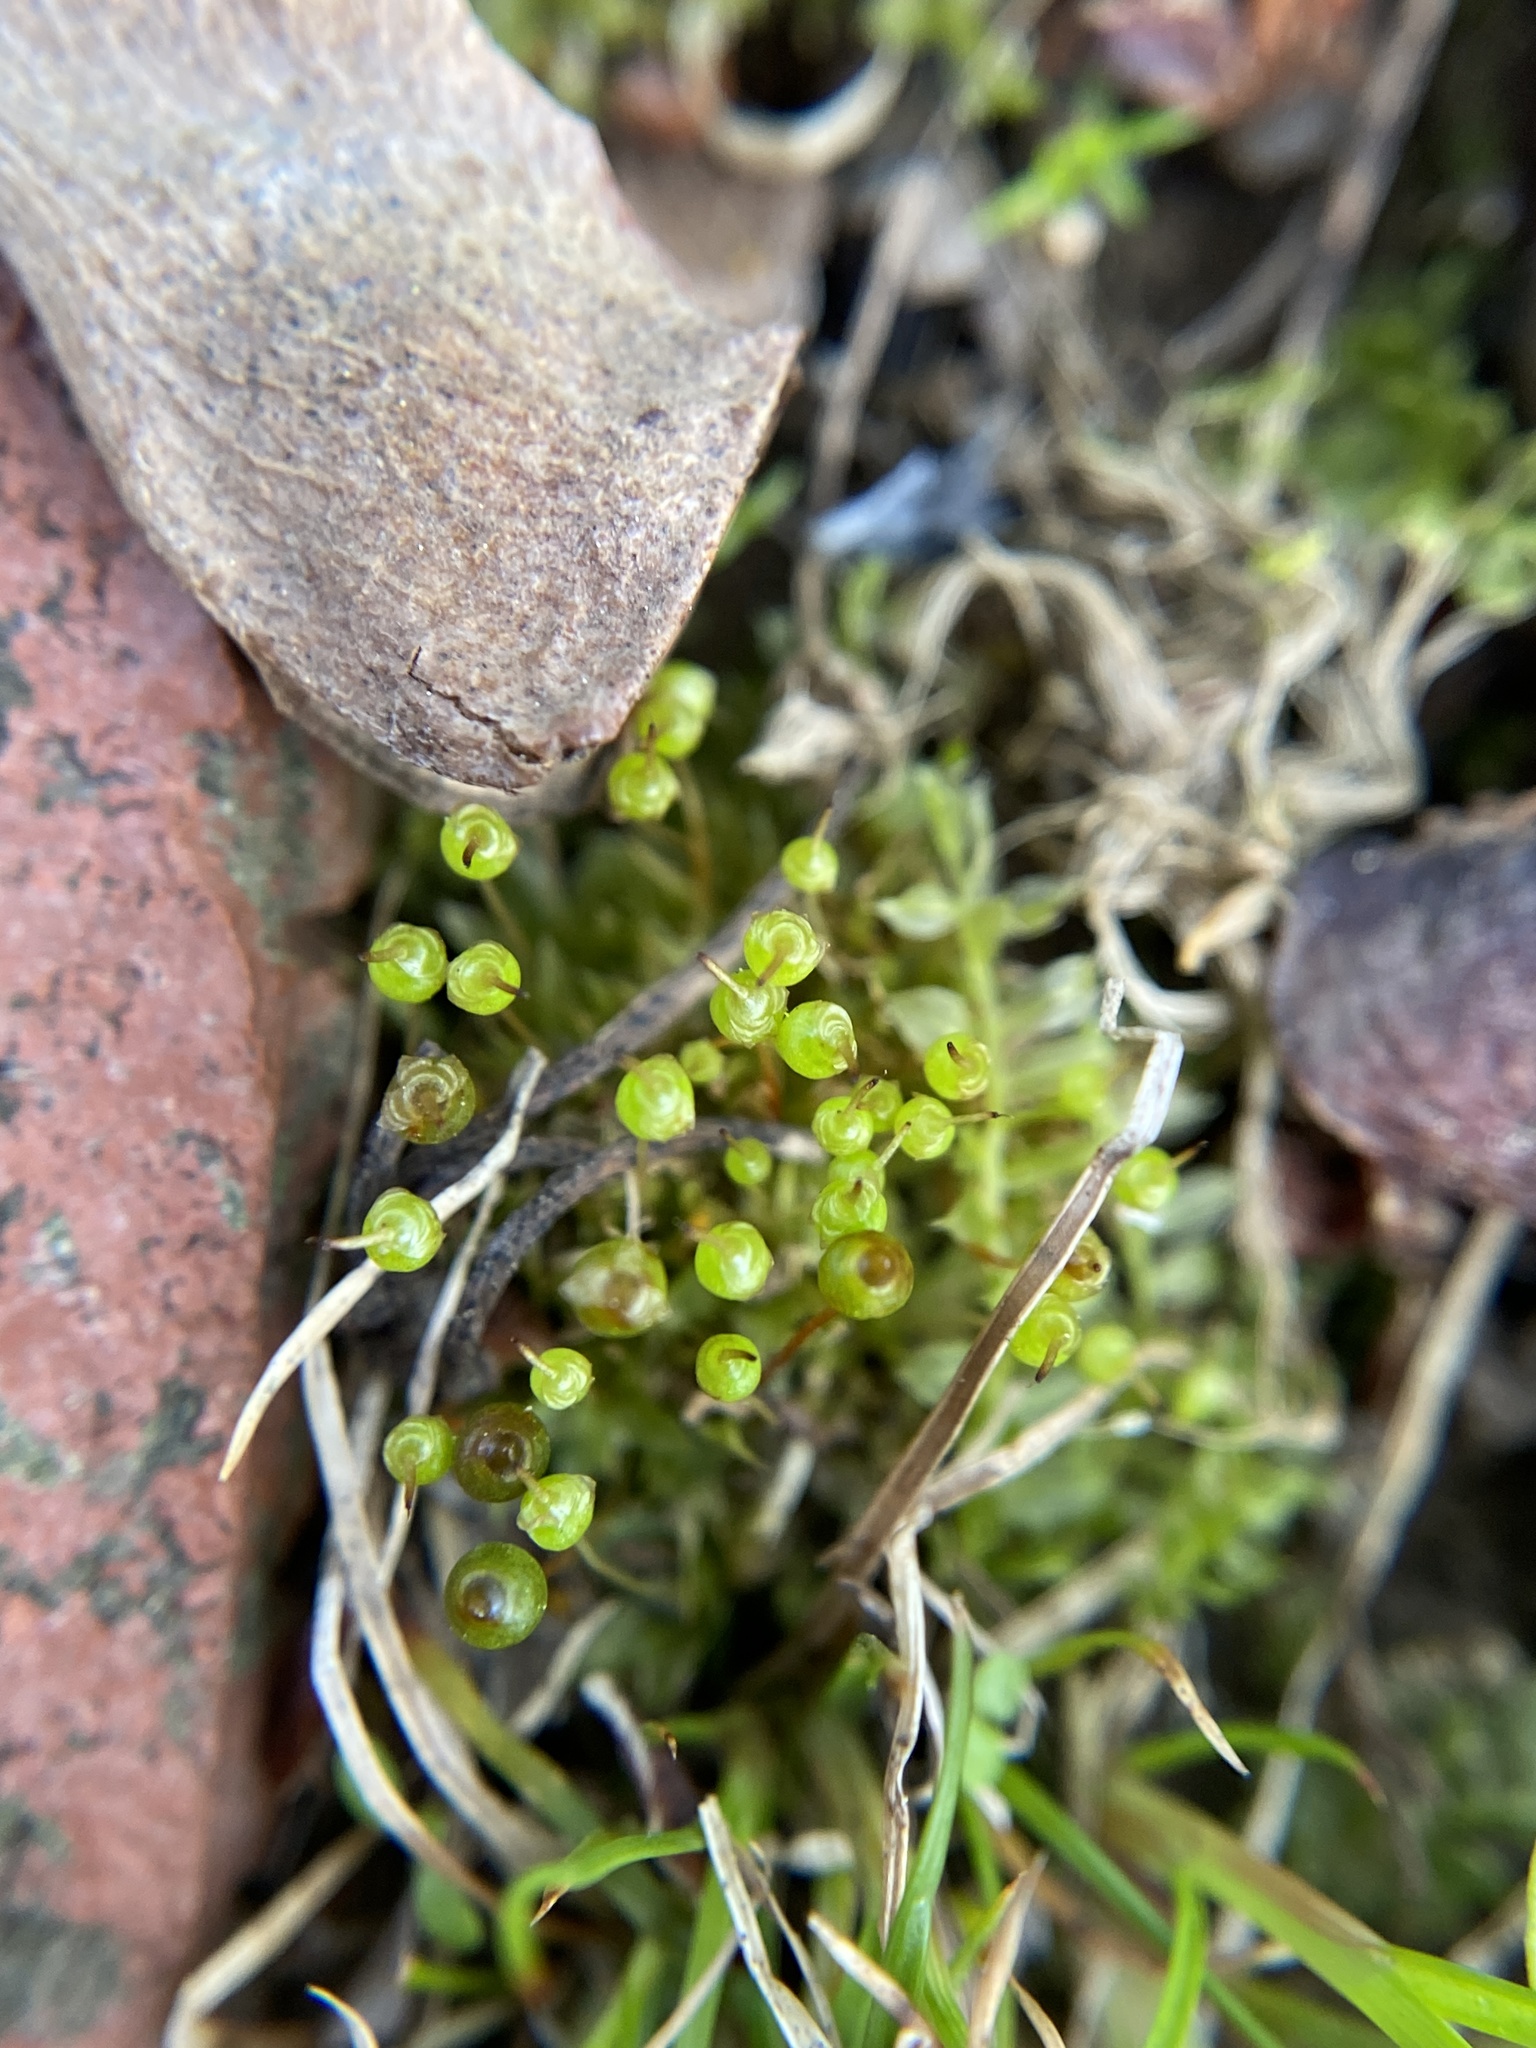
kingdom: Plantae
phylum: Bryophyta
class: Bryopsida
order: Funariales
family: Funariaceae
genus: Physcomitrium
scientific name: Physcomitrium pyriforme
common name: Common bladder-moss
